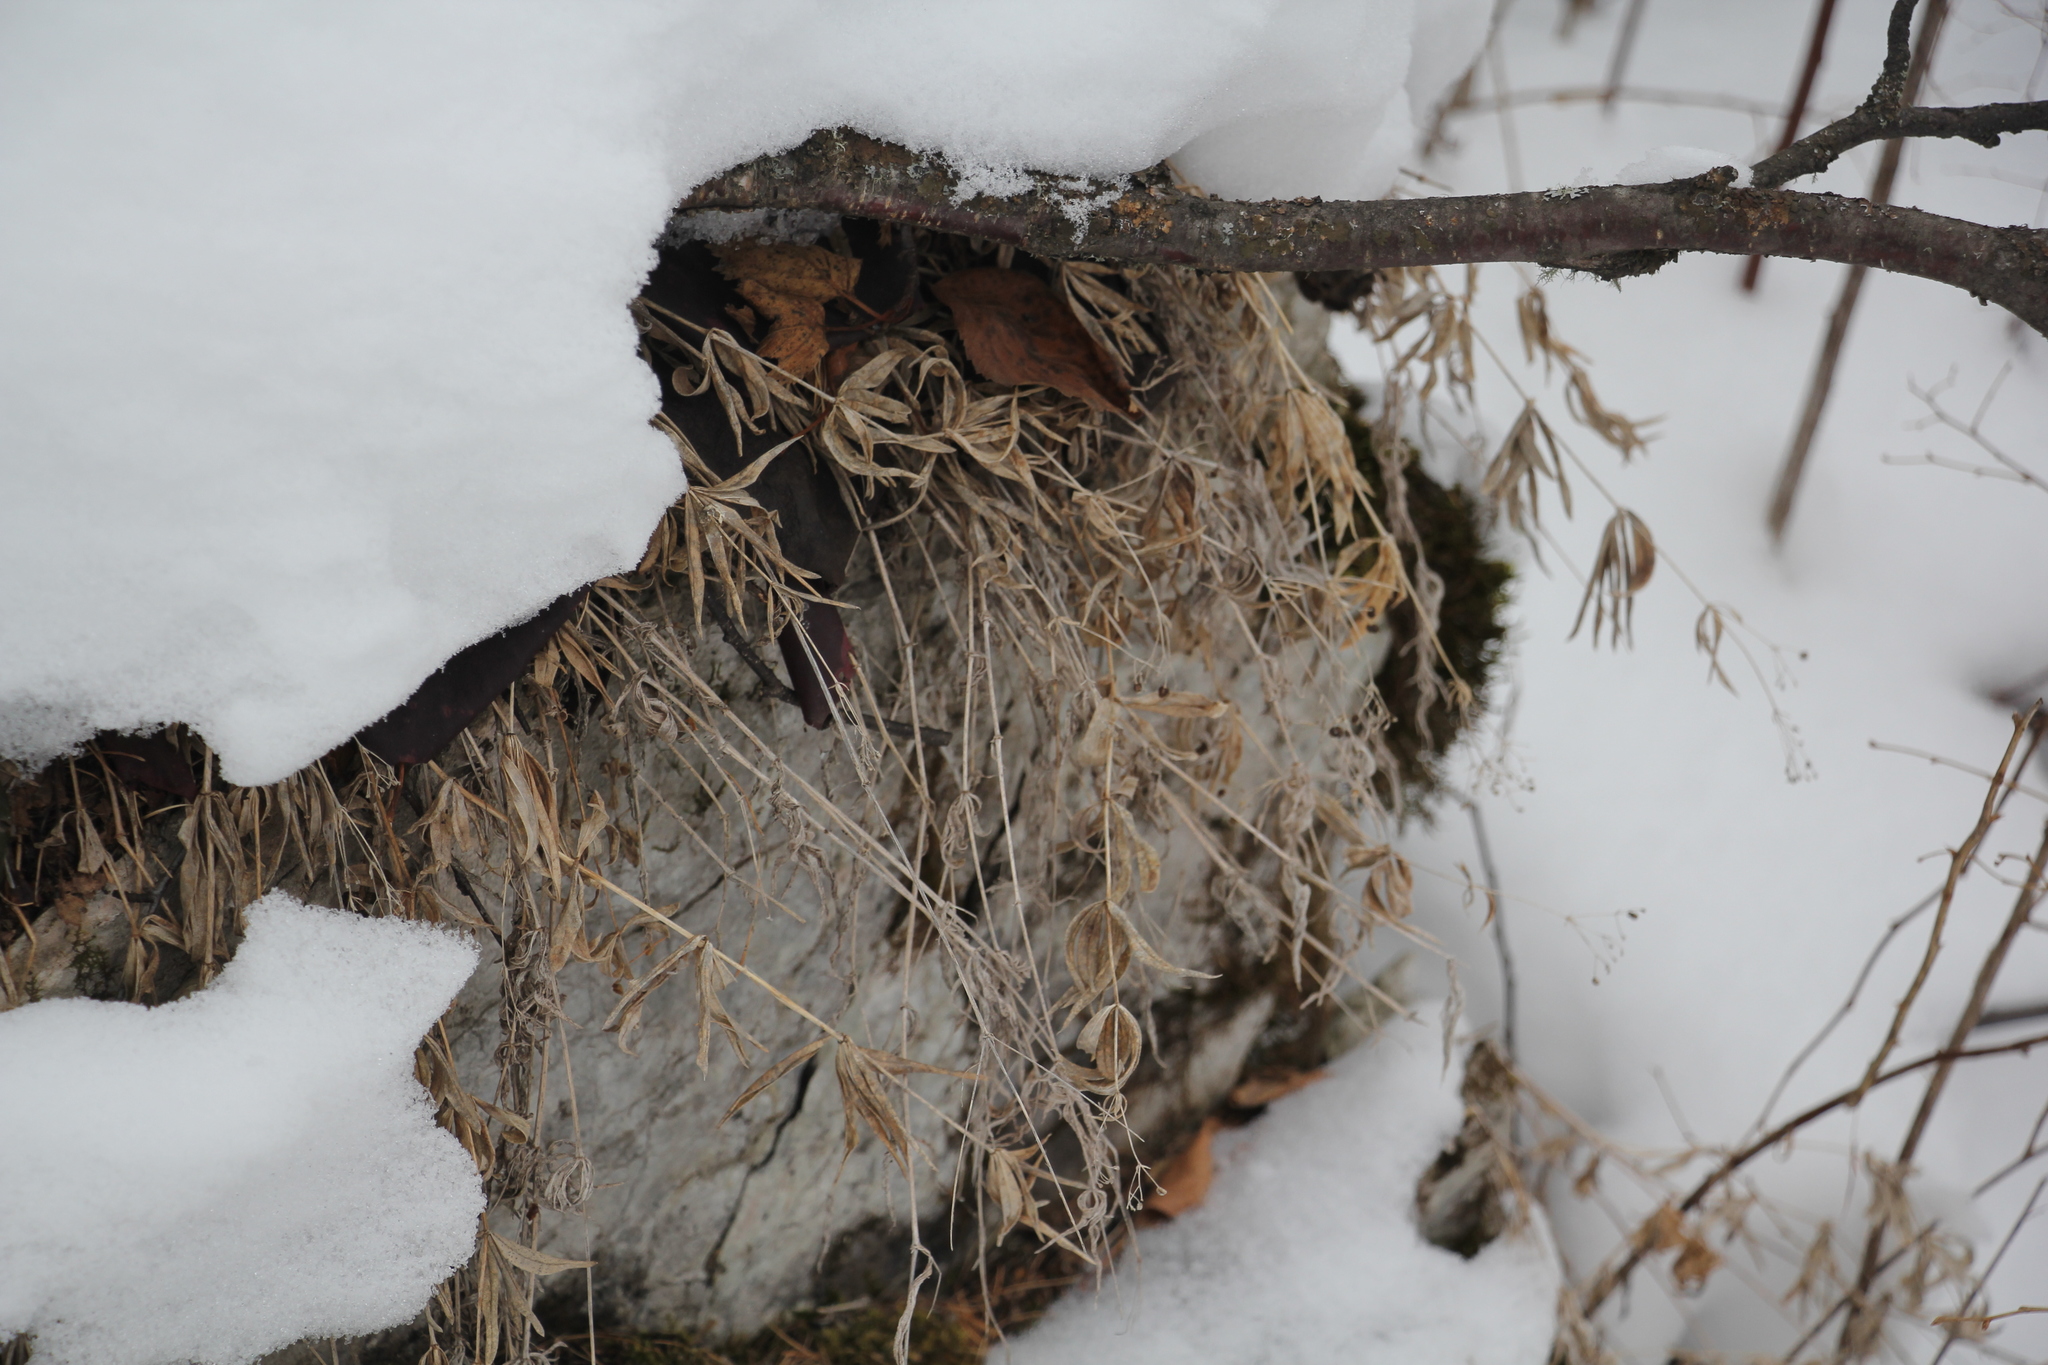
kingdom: Plantae
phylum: Tracheophyta
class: Magnoliopsida
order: Gentianales
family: Rubiaceae
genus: Galium
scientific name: Galium boreale
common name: Northern bedstraw
